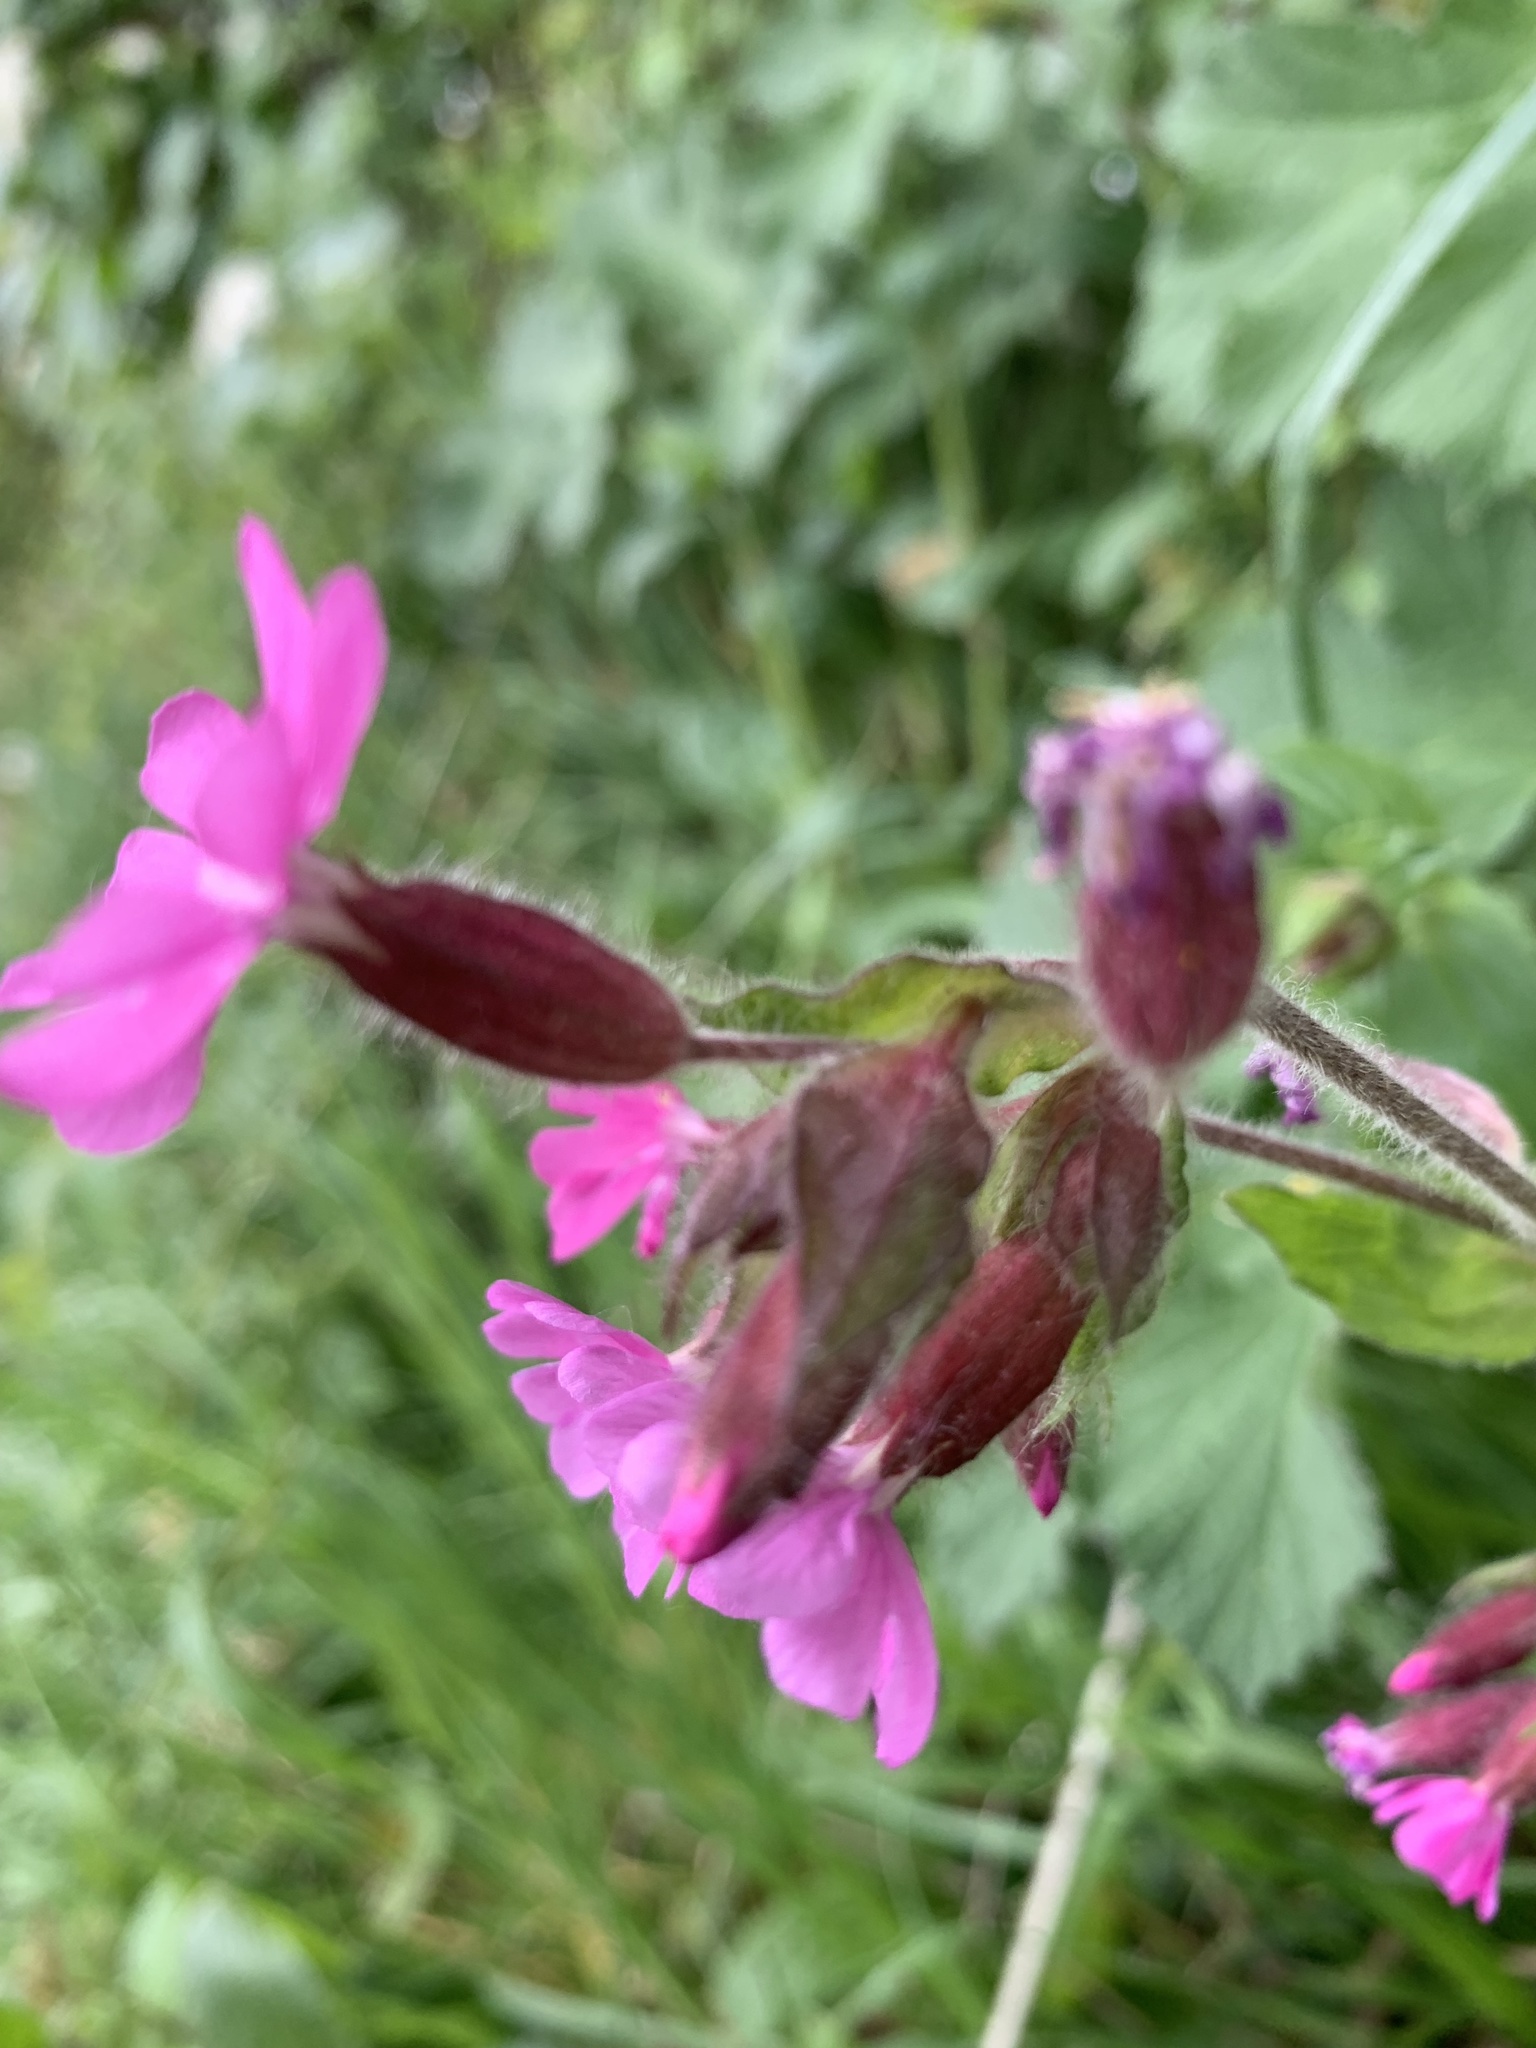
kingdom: Plantae
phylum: Tracheophyta
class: Magnoliopsida
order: Caryophyllales
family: Caryophyllaceae
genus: Silene
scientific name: Silene dioica
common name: Red campion
